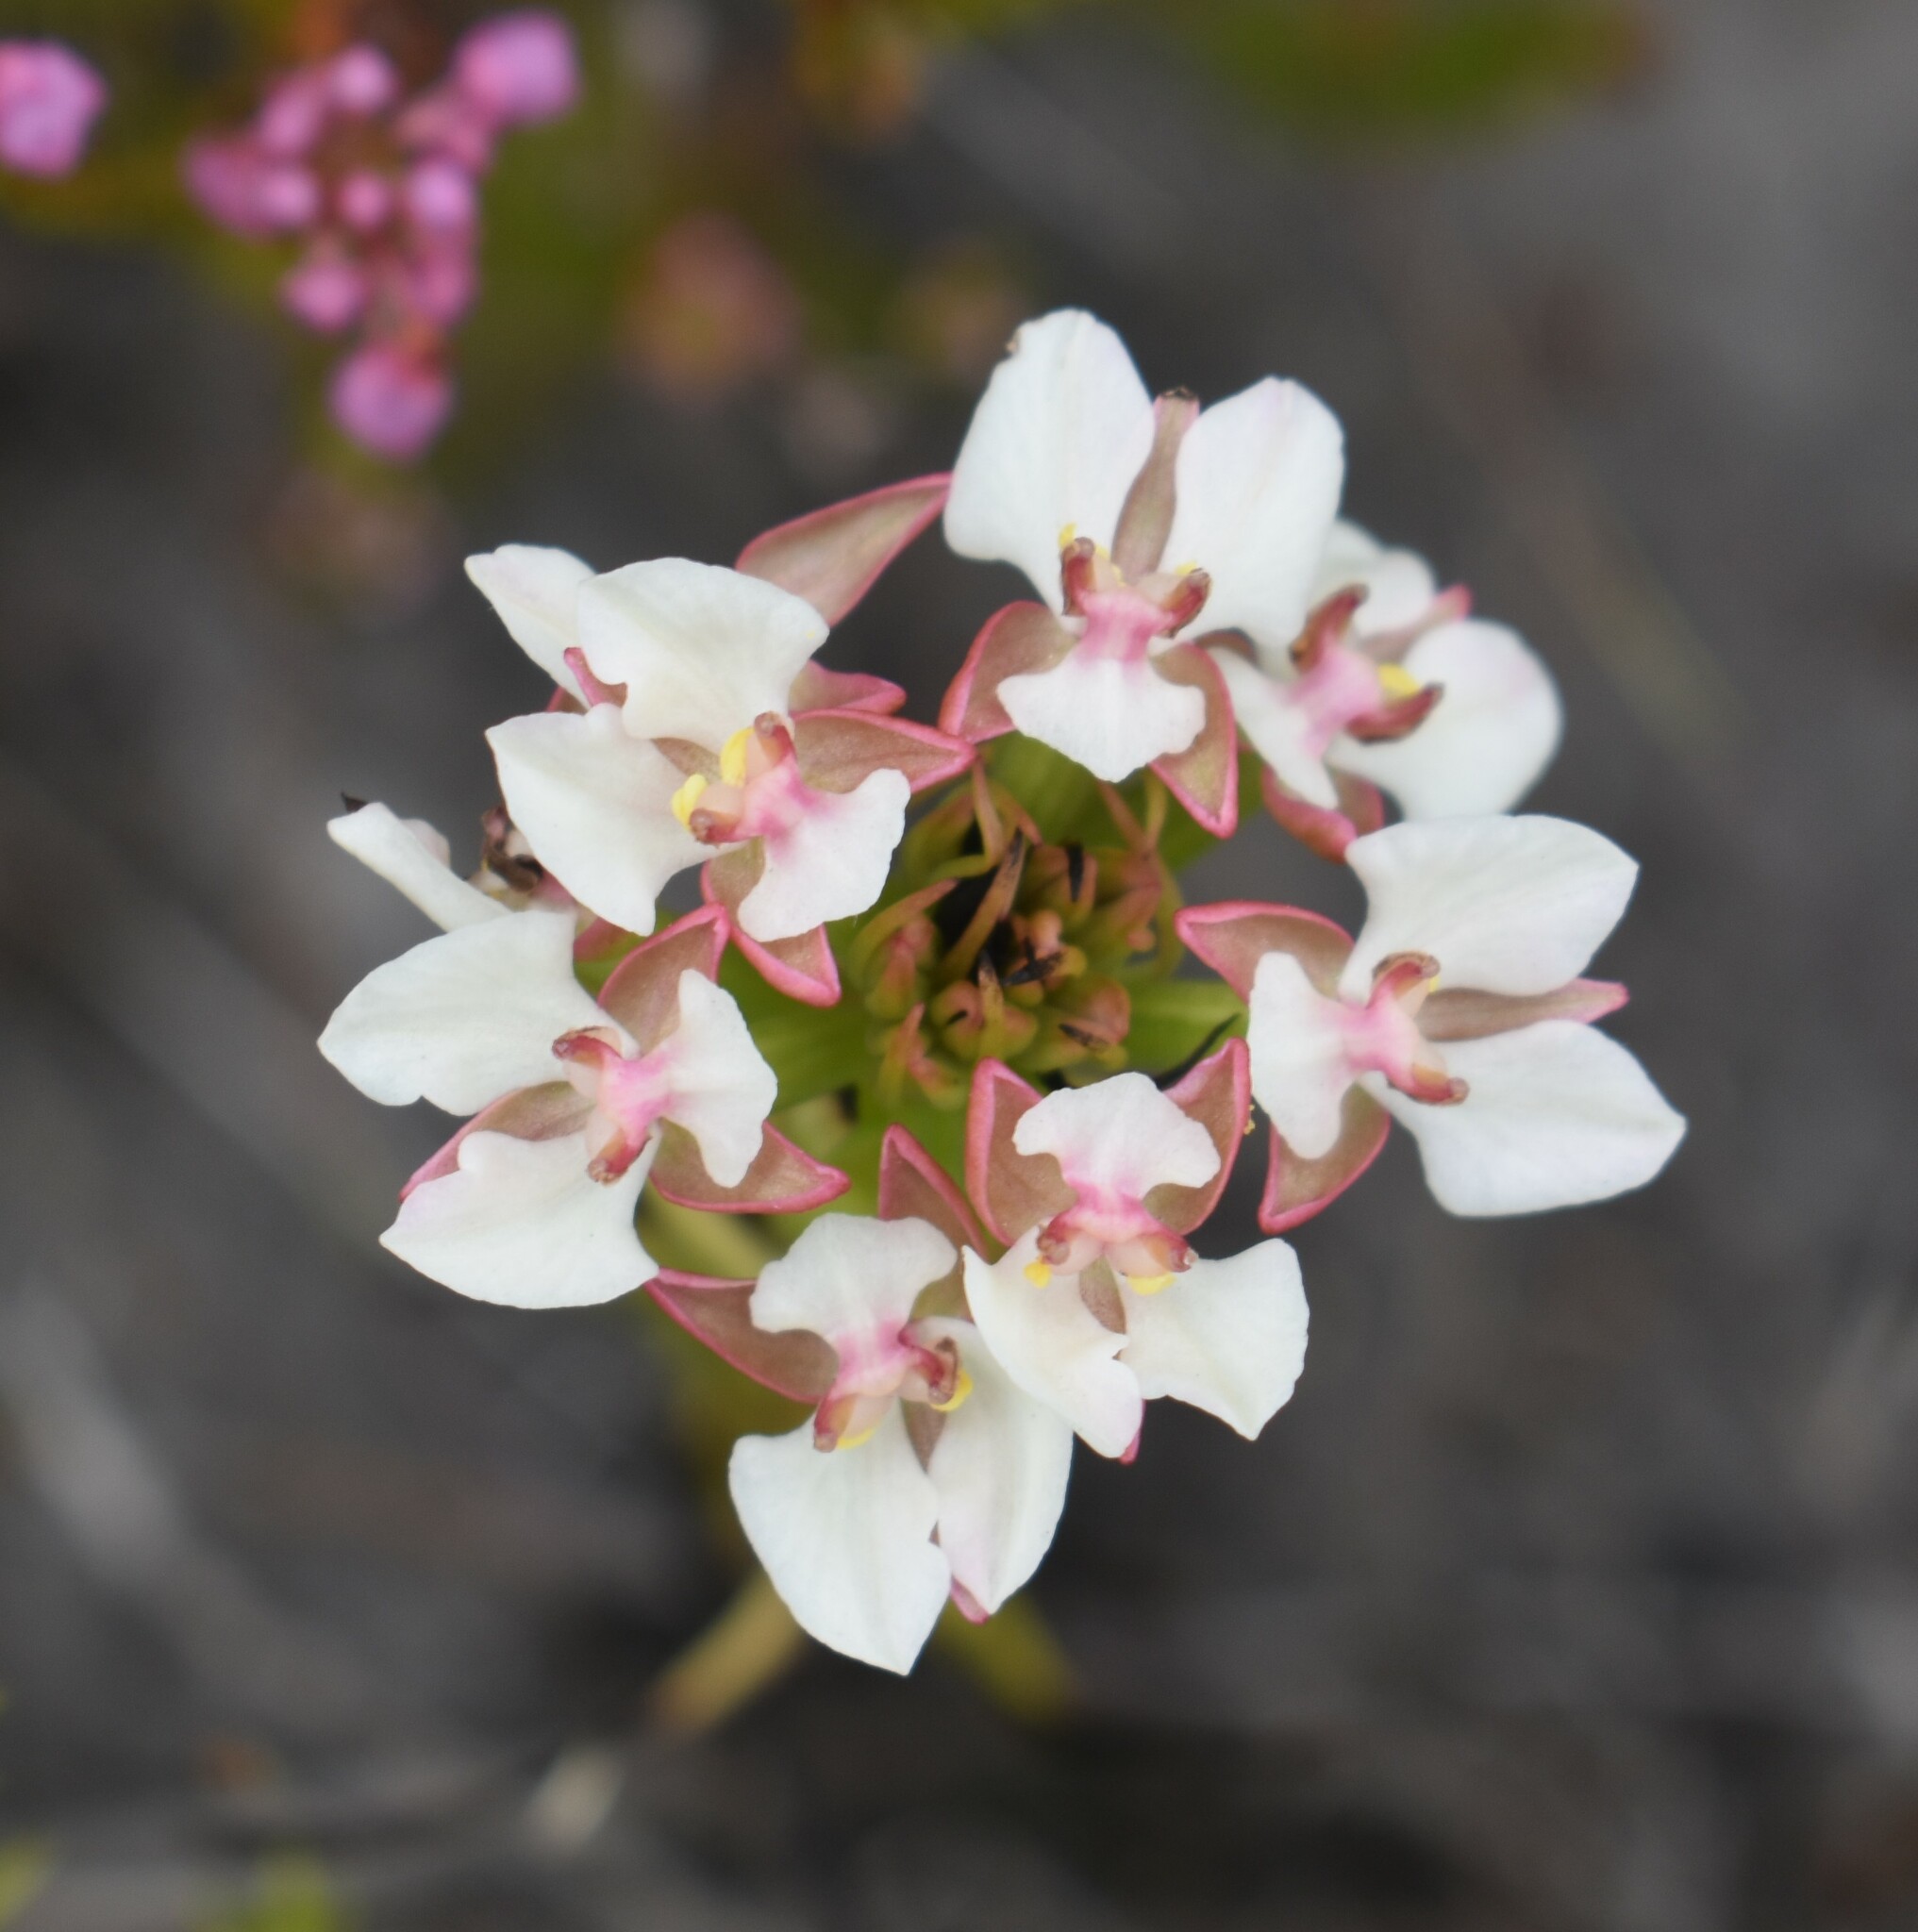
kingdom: Plantae
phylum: Tracheophyta
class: Liliopsida
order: Asparagales
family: Orchidaceae
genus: Ceratandra
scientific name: Ceratandra globosa
